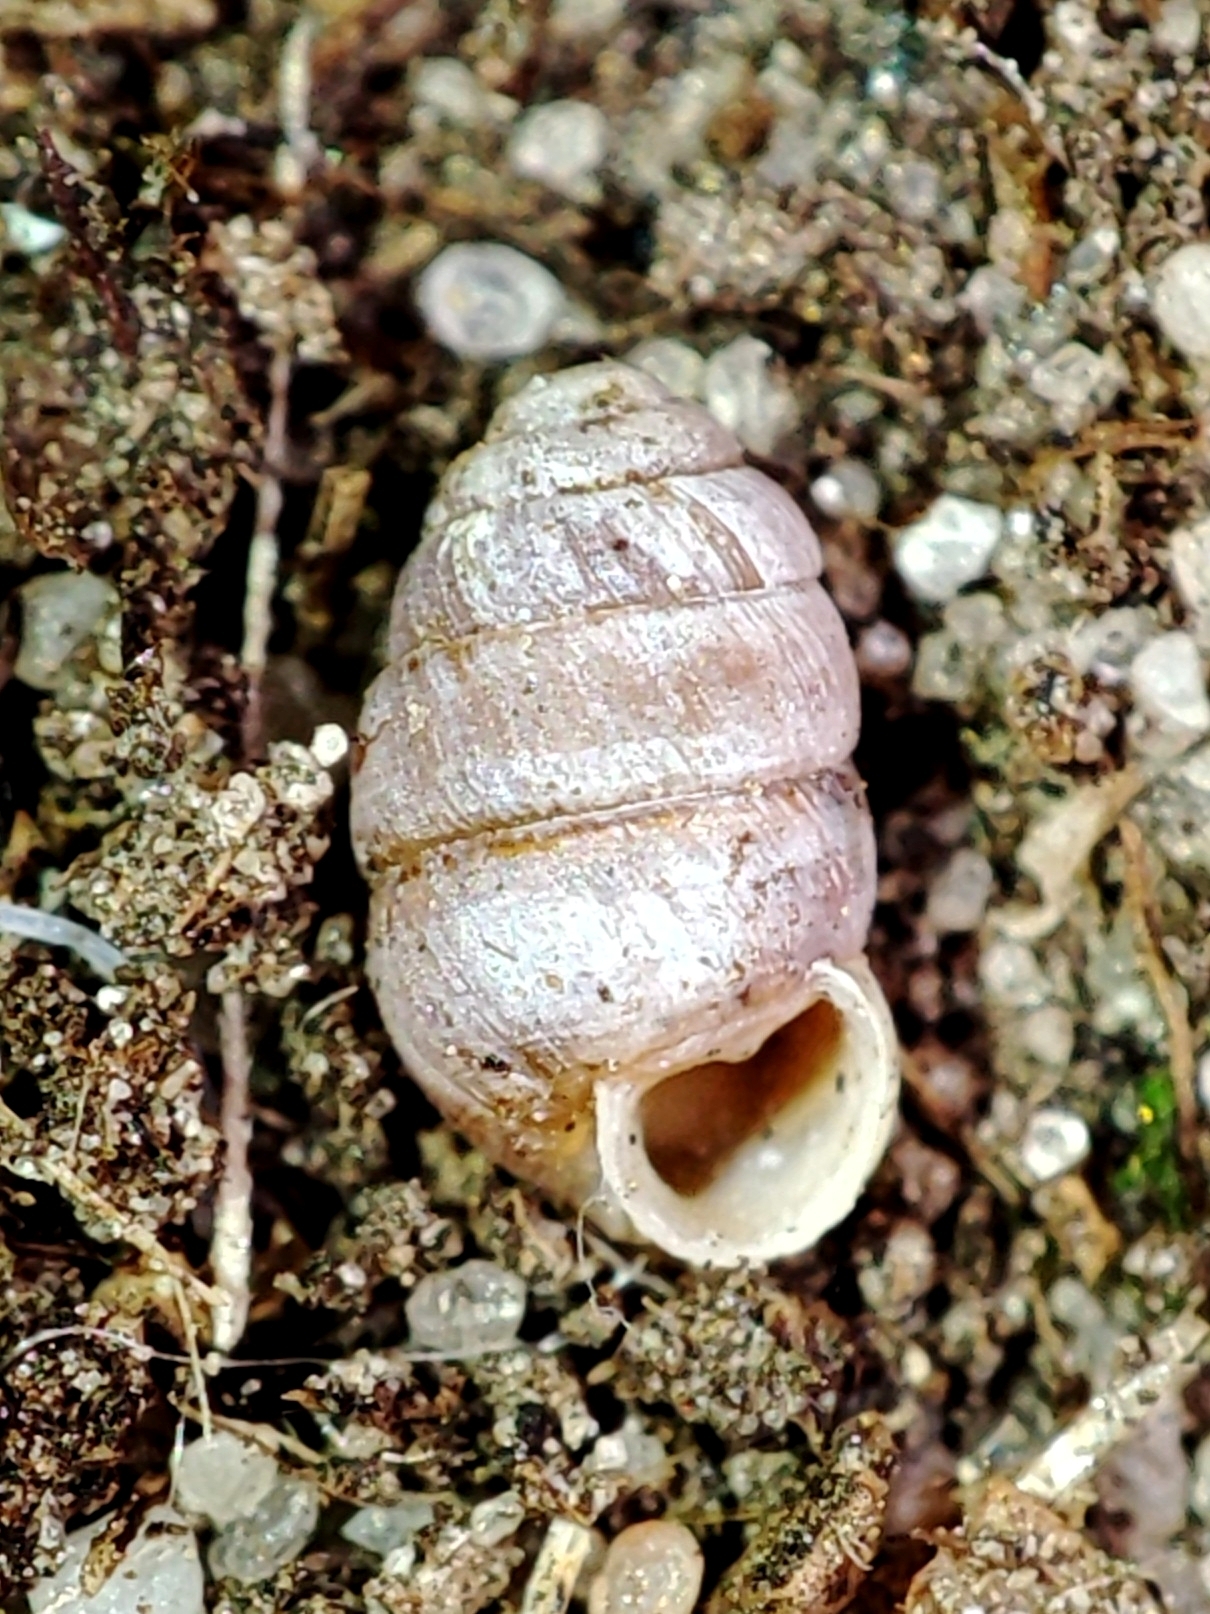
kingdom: Animalia
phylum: Mollusca
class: Gastropoda
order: Stylommatophora
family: Pupillidae
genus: Pupilla
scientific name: Pupilla muscorum
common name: Moss chrysalis snail
